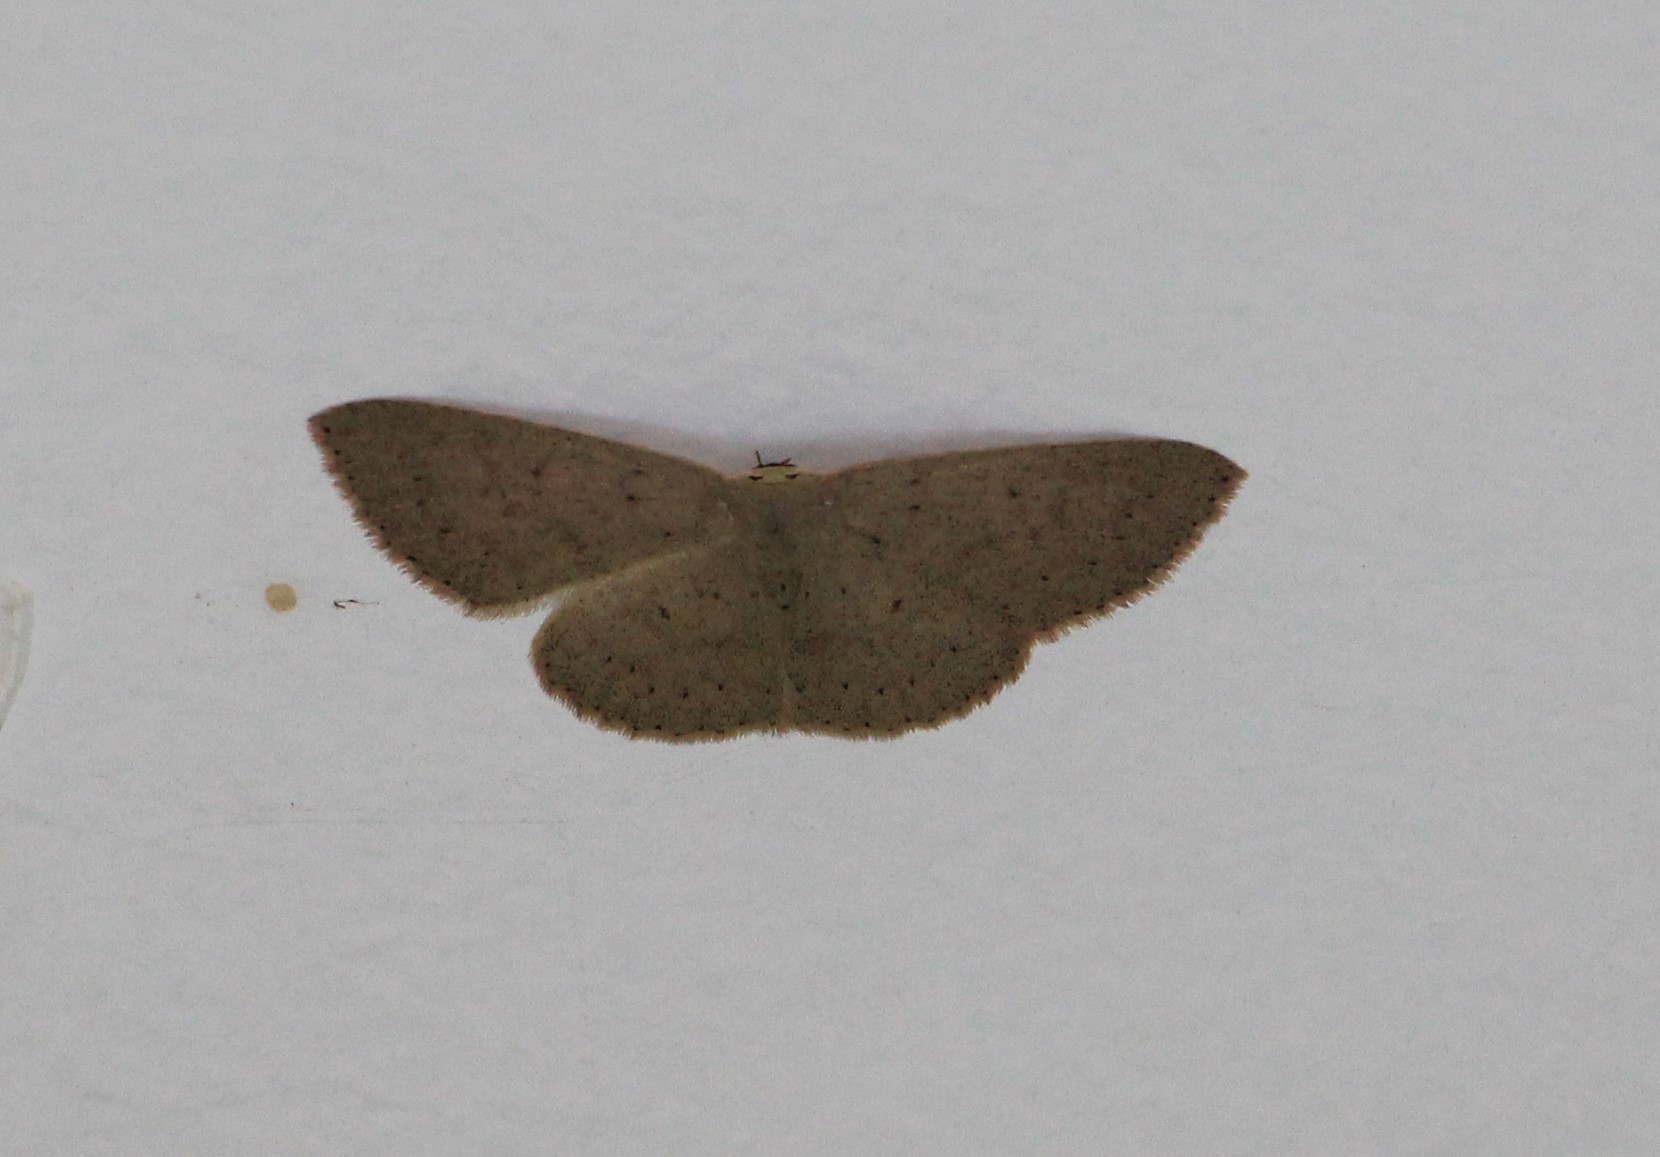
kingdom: Animalia
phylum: Arthropoda
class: Insecta
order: Lepidoptera
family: Geometridae
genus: Cyclophora
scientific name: Cyclophora obstataria
